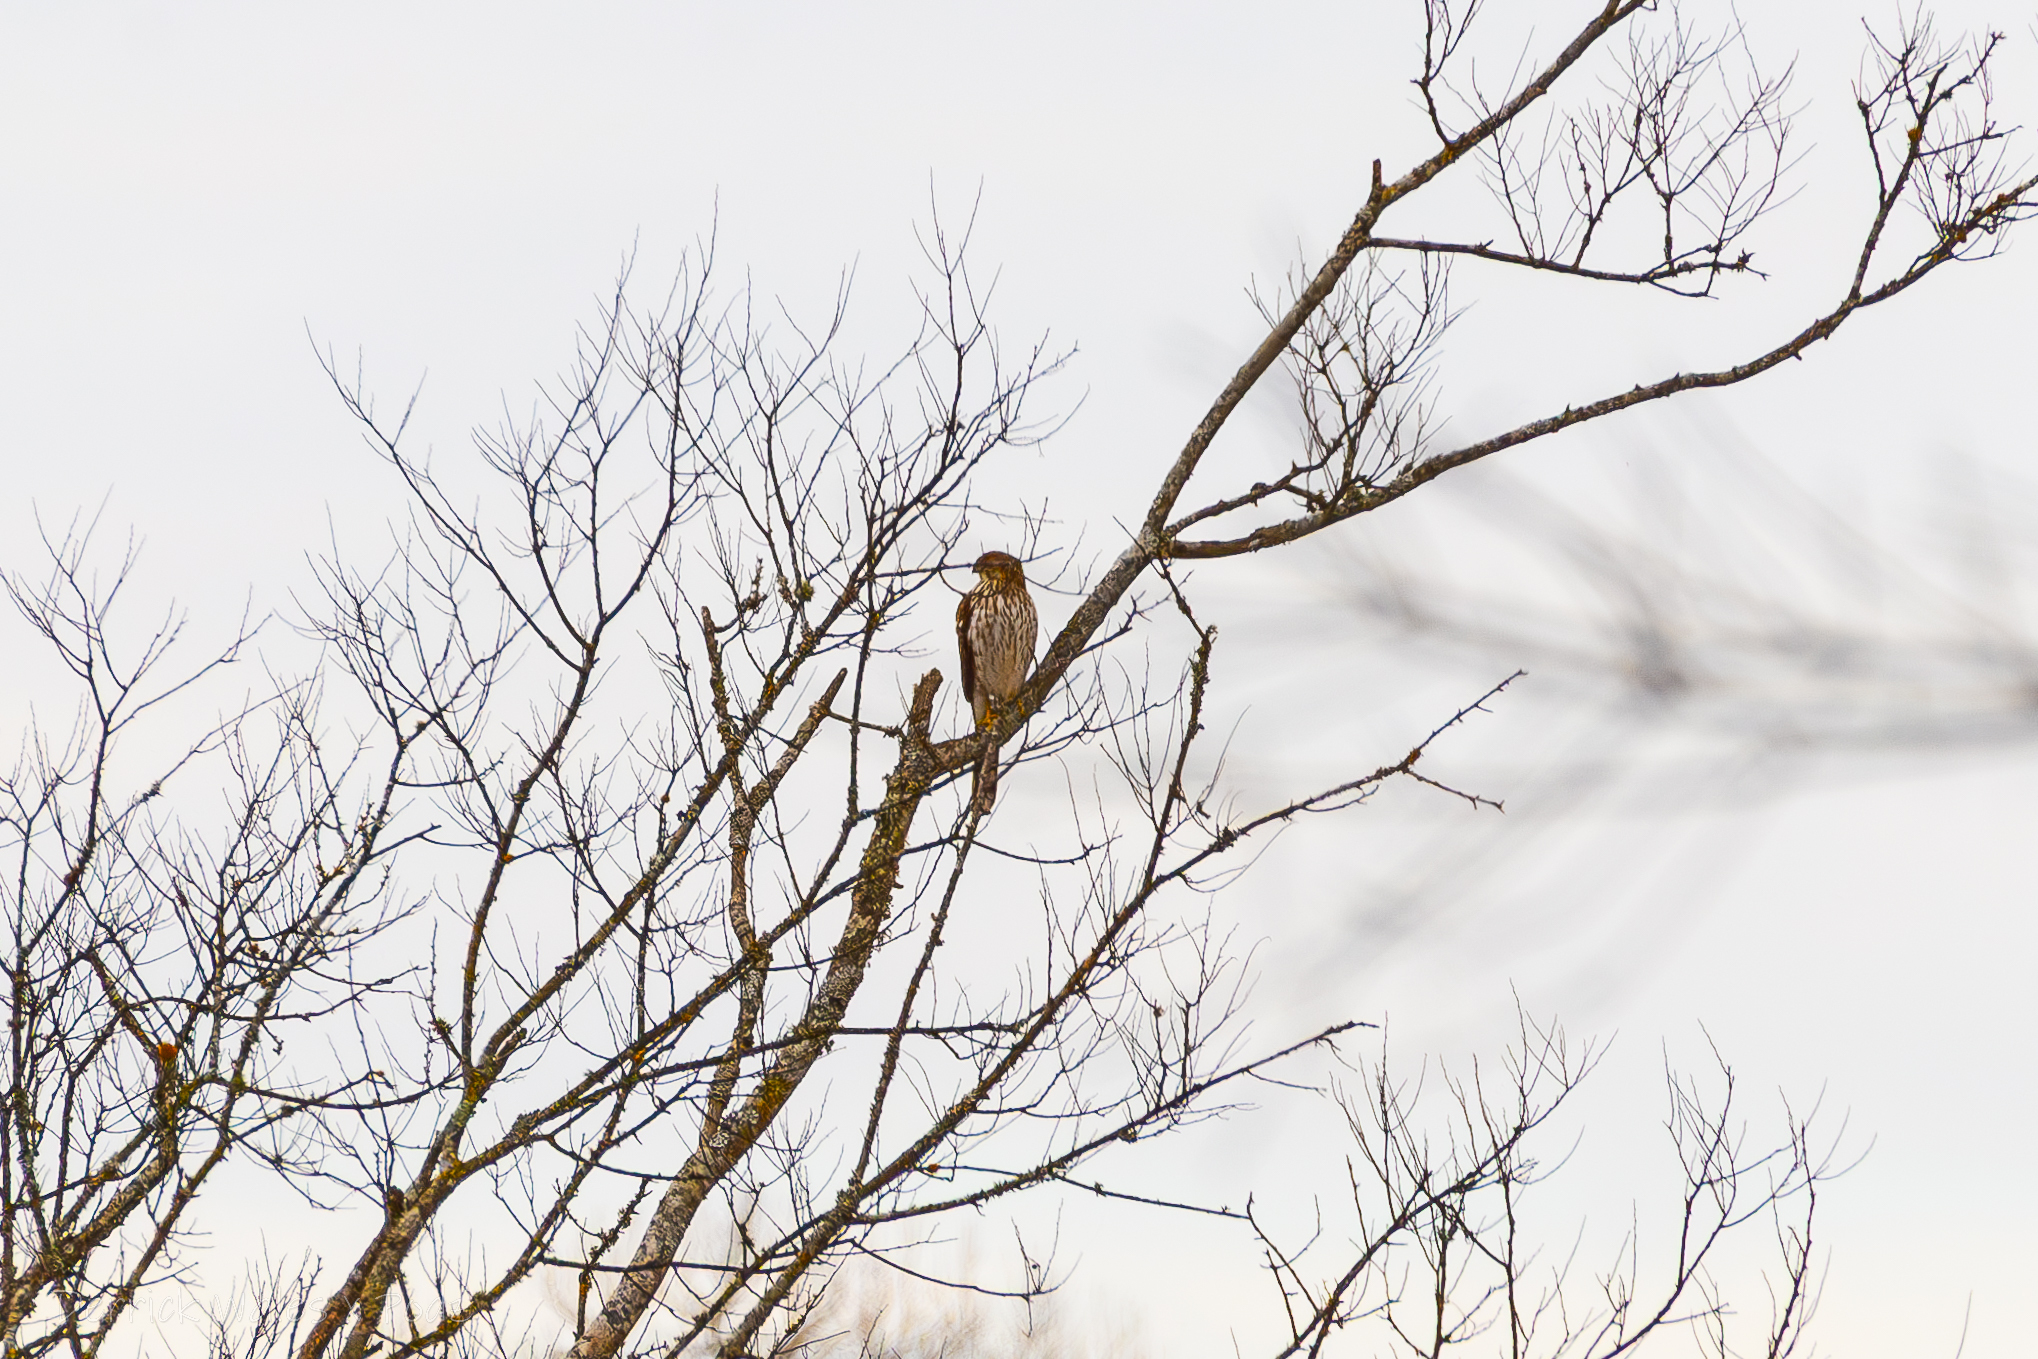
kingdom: Animalia
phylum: Chordata
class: Aves
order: Accipitriformes
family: Accipitridae
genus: Accipiter
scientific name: Accipiter cooperii
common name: Cooper's hawk
